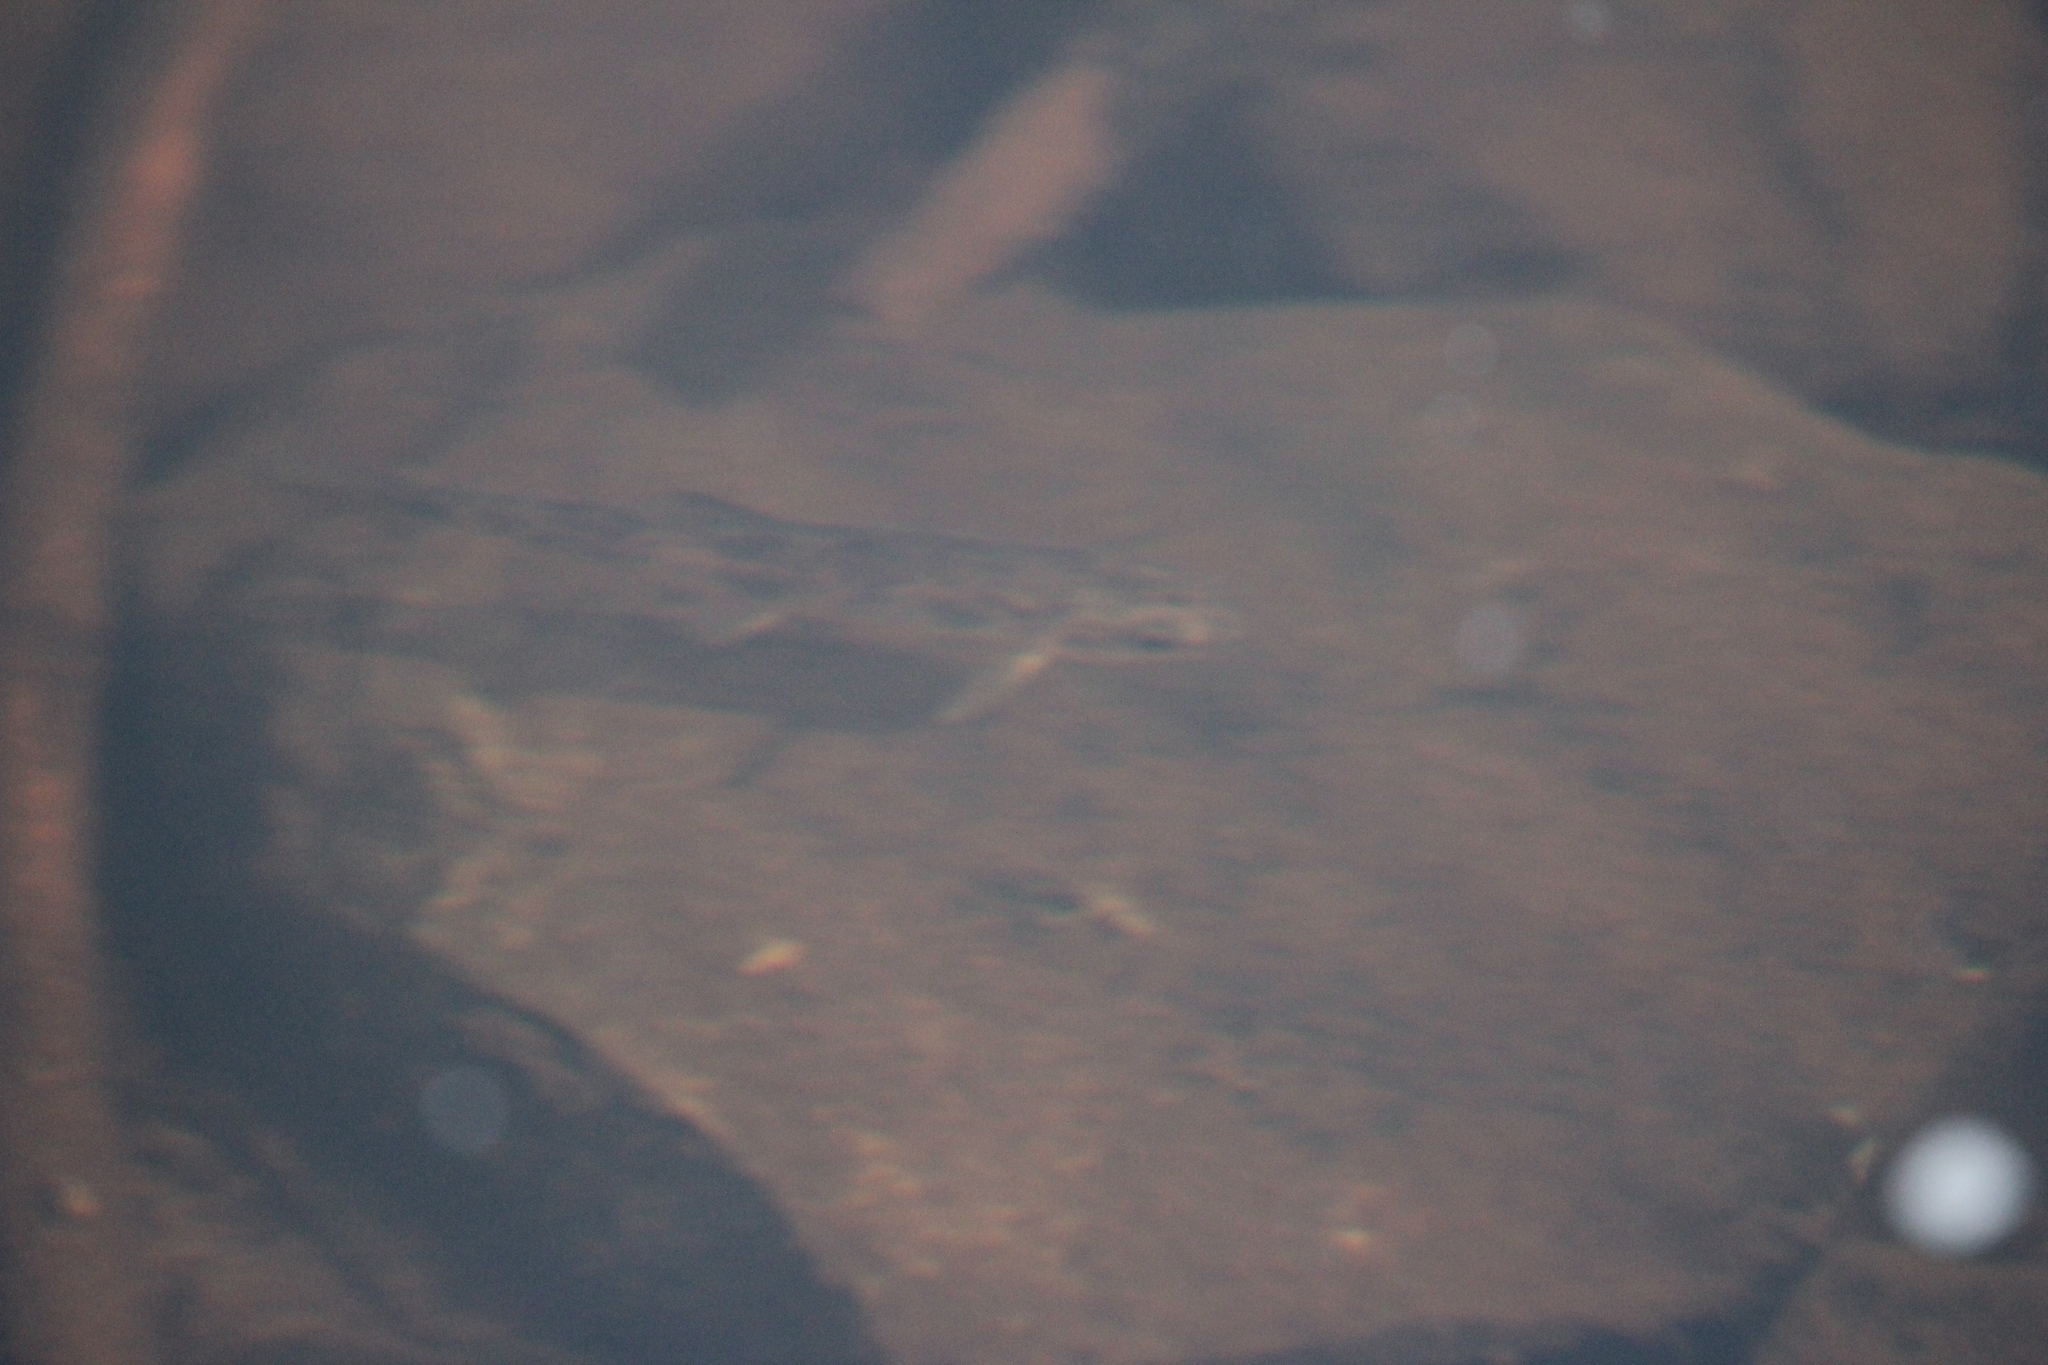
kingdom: Animalia
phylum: Chordata
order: Cypriniformes
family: Catostomidae
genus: Catostomus
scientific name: Catostomus commersonii
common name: White sucker
